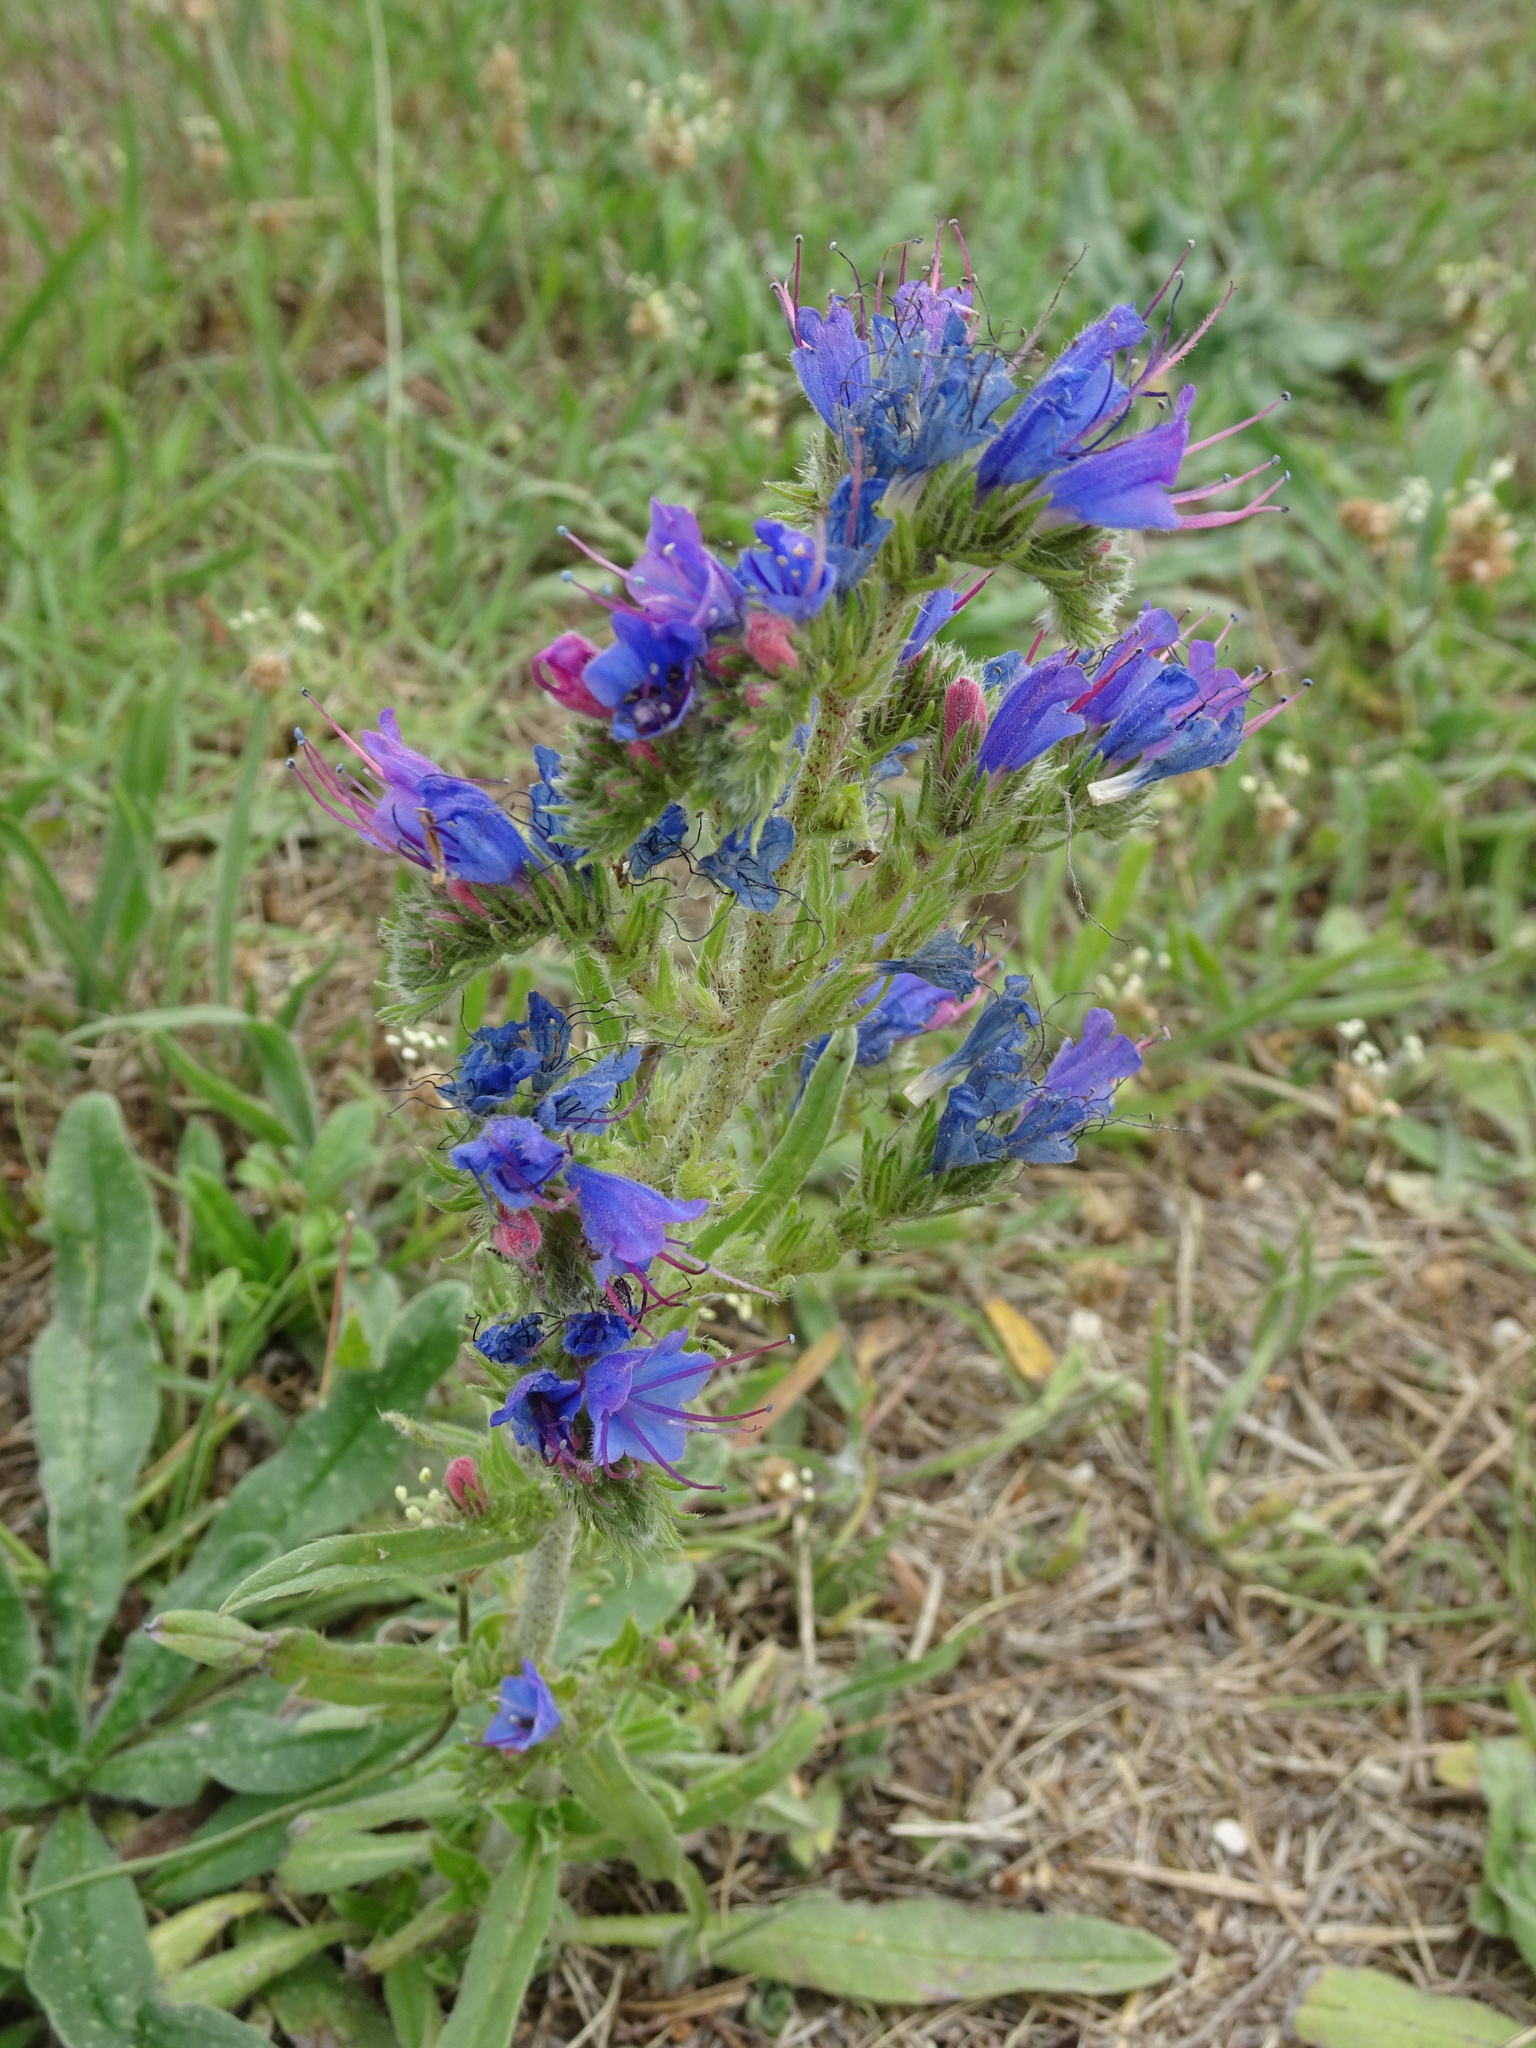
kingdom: Plantae
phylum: Tracheophyta
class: Magnoliopsida
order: Boraginales
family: Boraginaceae
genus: Echium
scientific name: Echium vulgare
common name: Common viper's bugloss
